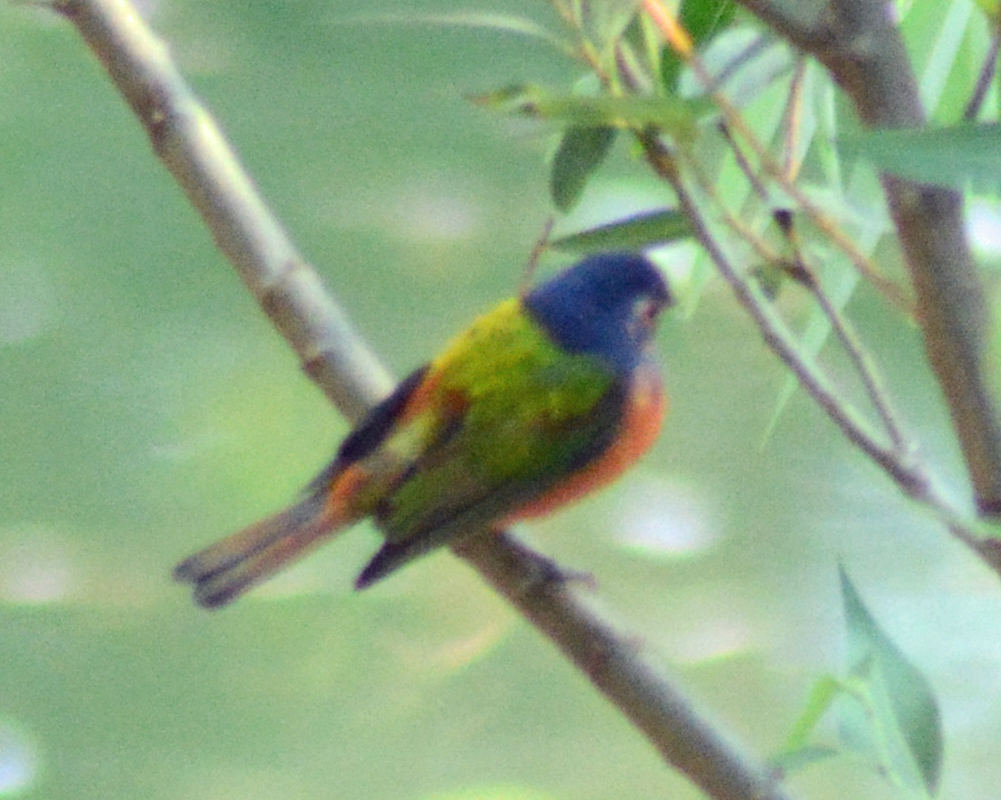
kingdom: Animalia
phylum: Chordata
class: Aves
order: Passeriformes
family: Cardinalidae
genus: Passerina
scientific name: Passerina ciris
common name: Painted bunting
